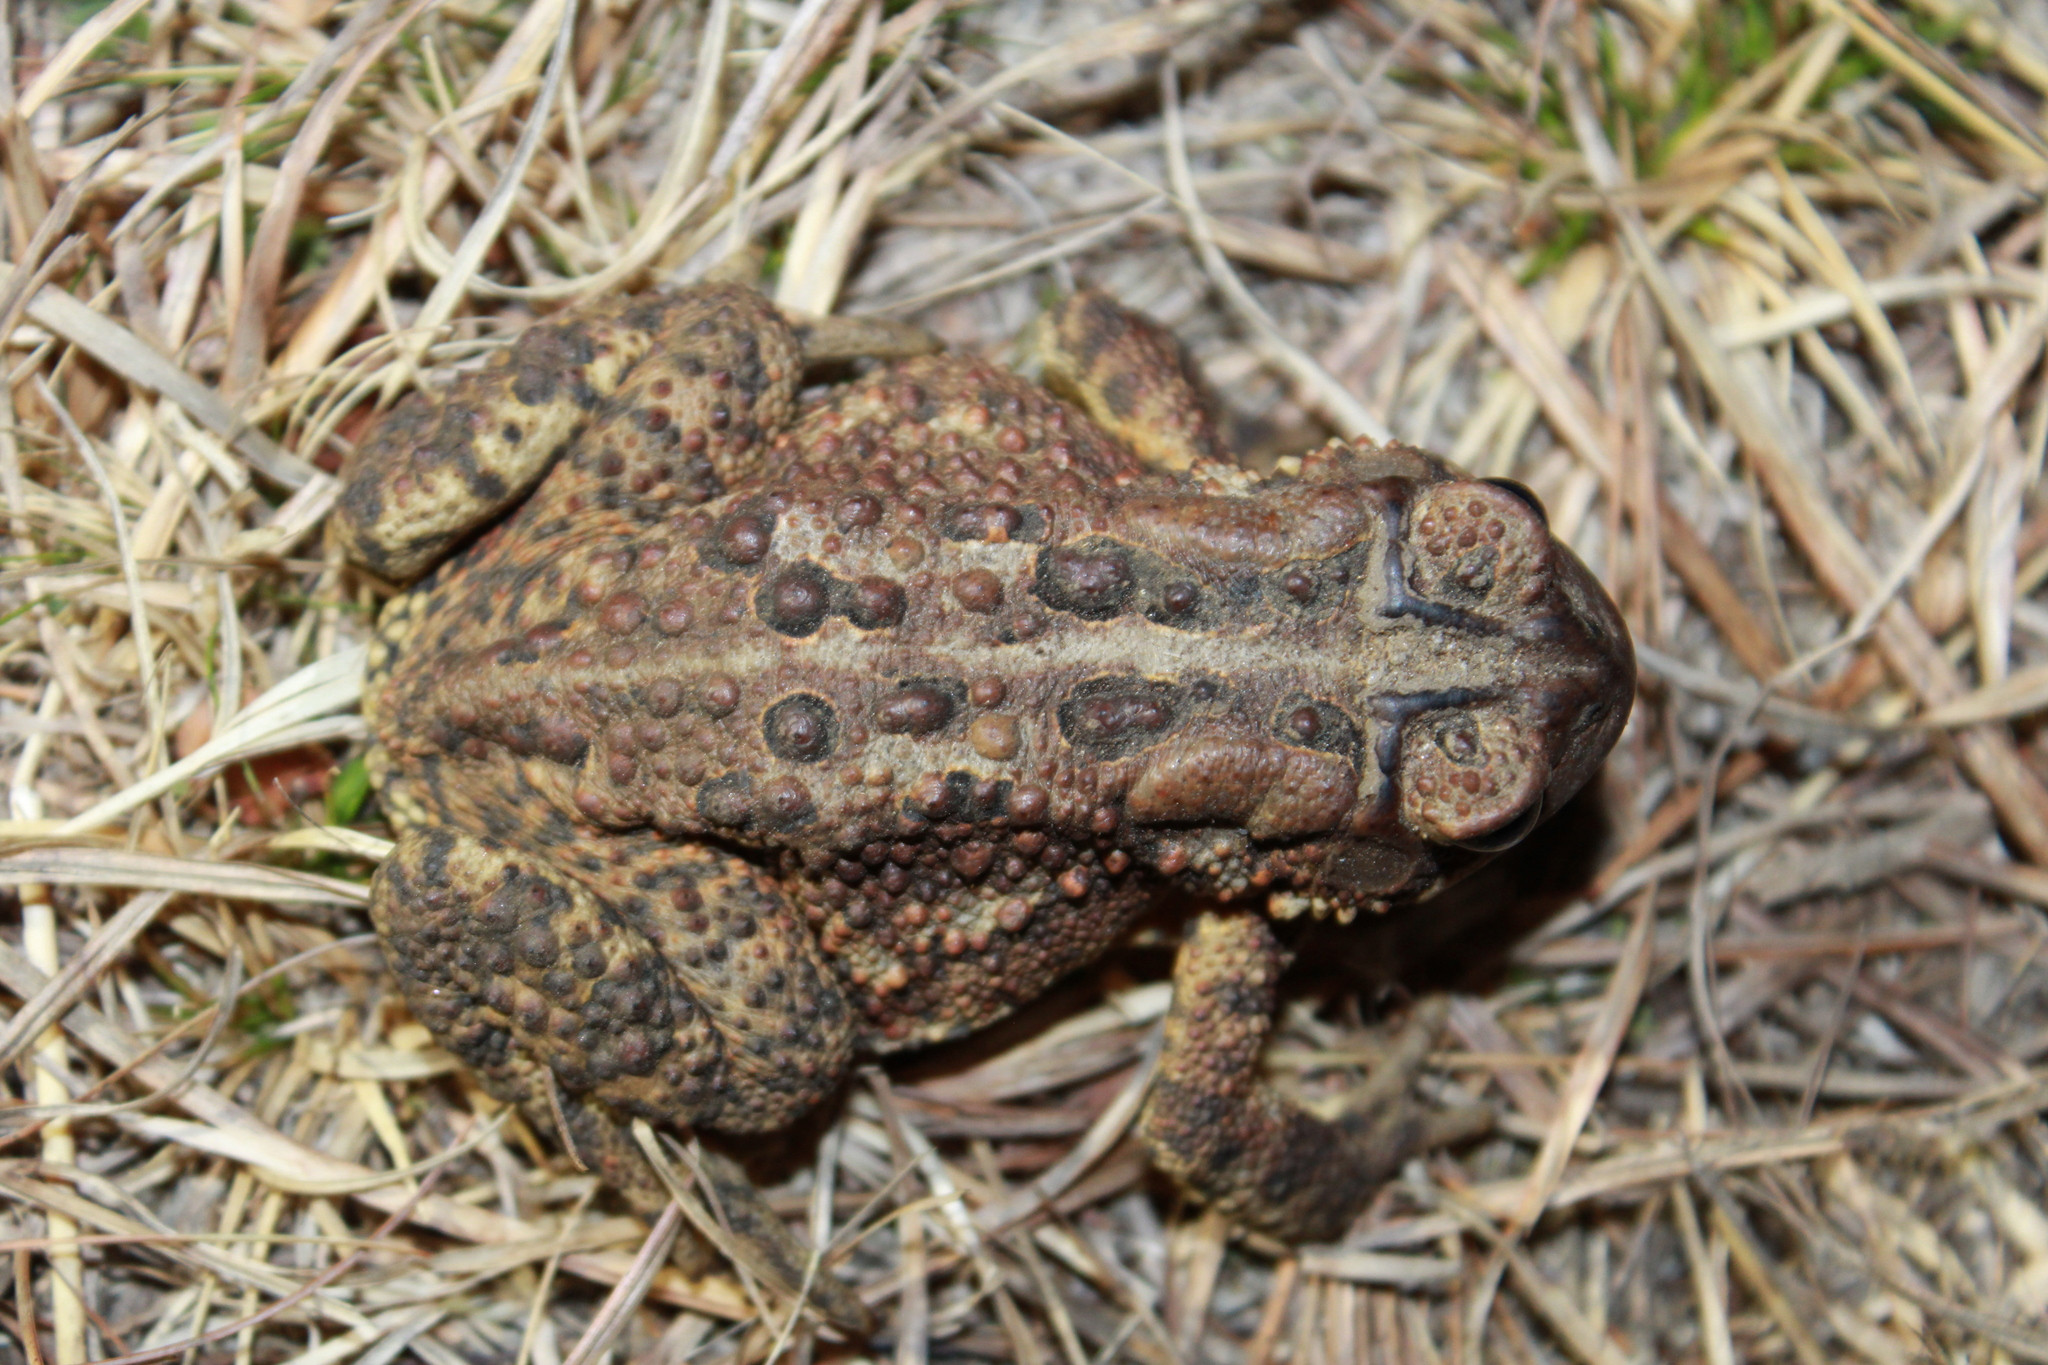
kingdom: Animalia
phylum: Chordata
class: Amphibia
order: Anura
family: Bufonidae
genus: Anaxyrus
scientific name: Anaxyrus americanus
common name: American toad
